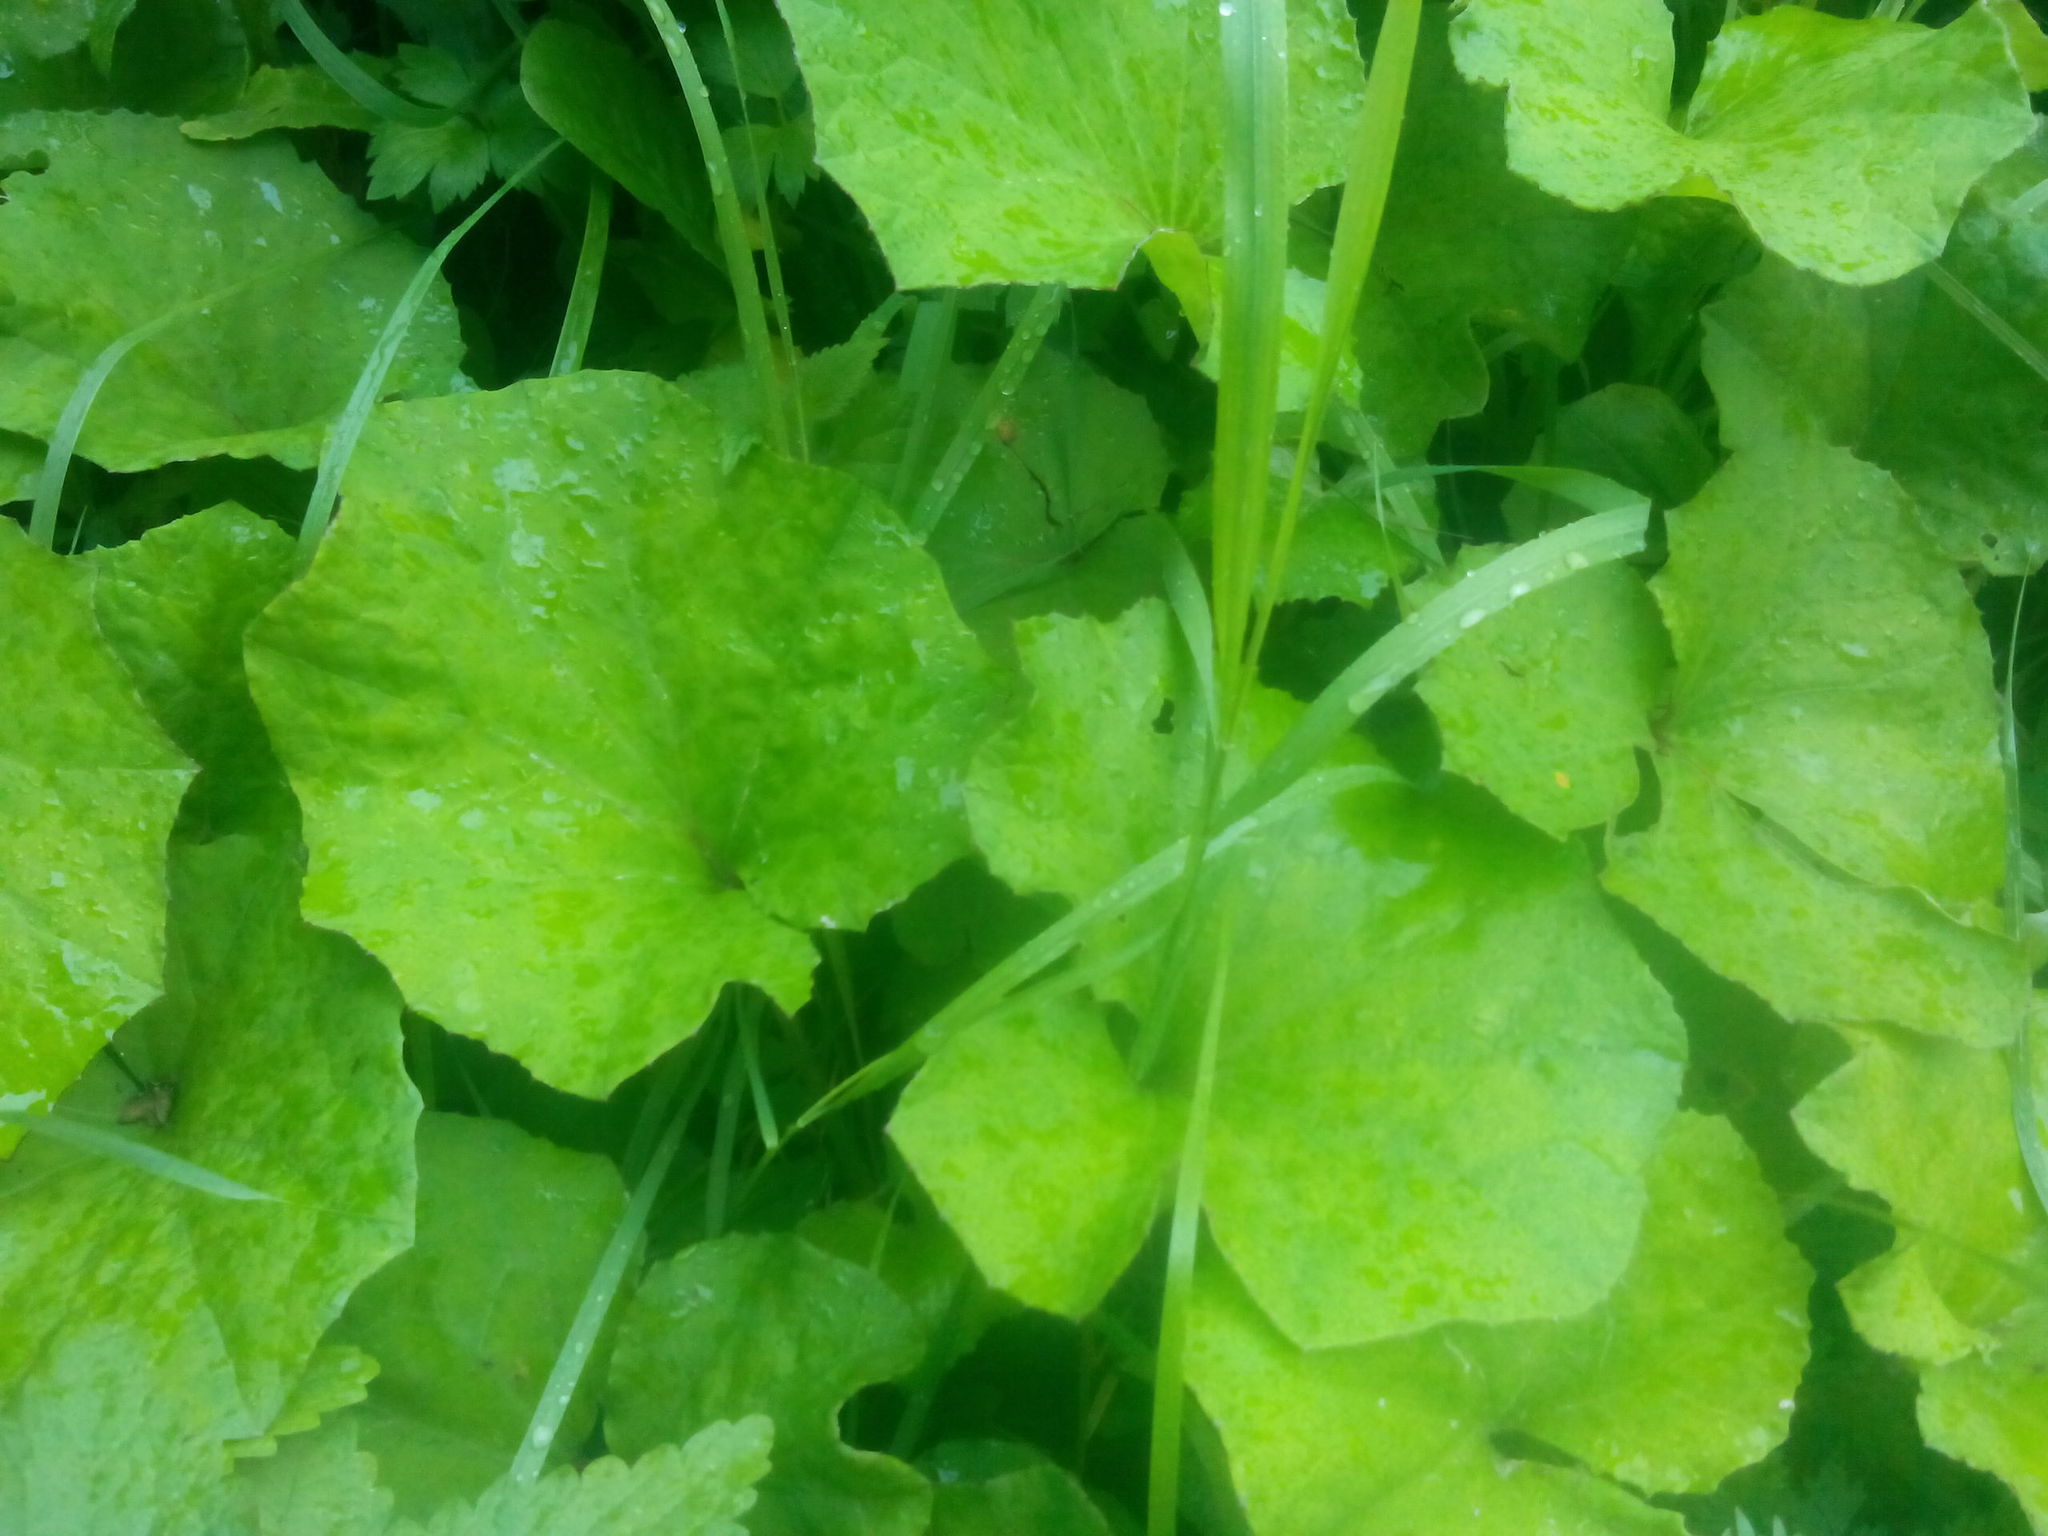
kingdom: Plantae
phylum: Tracheophyta
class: Magnoliopsida
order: Asterales
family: Asteraceae
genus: Tussilago
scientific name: Tussilago farfara
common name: Coltsfoot
